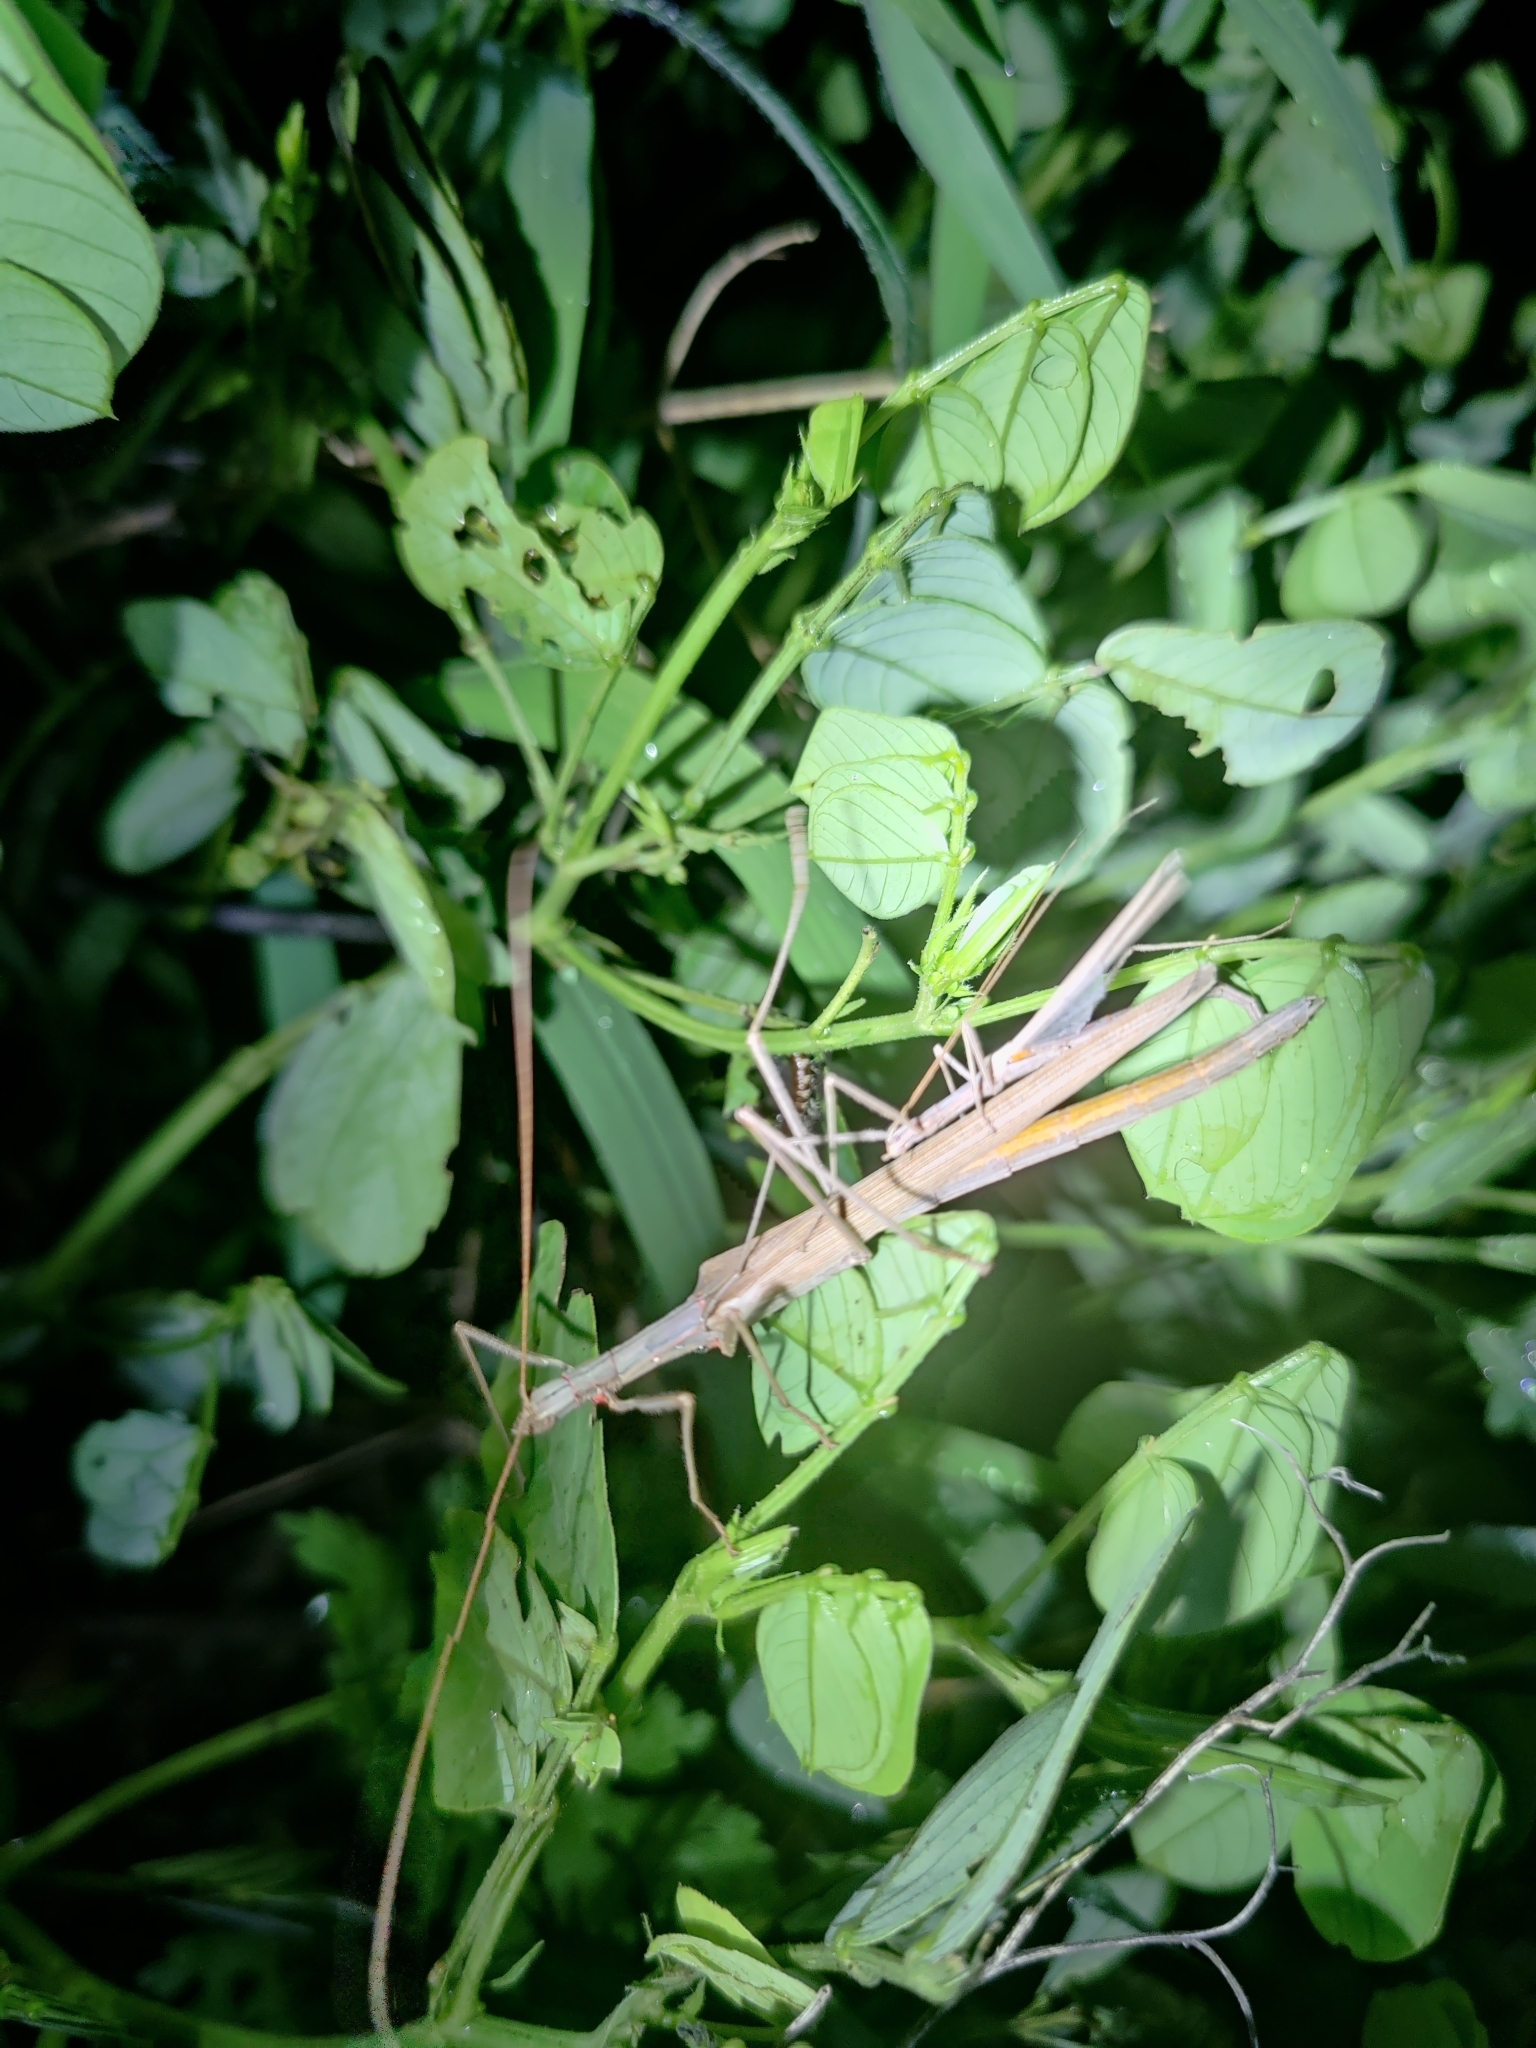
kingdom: Animalia
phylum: Arthropoda
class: Insecta
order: Phasmida
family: Lonchodidae
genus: Trachythorax
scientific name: Trachythorax sparaxes
